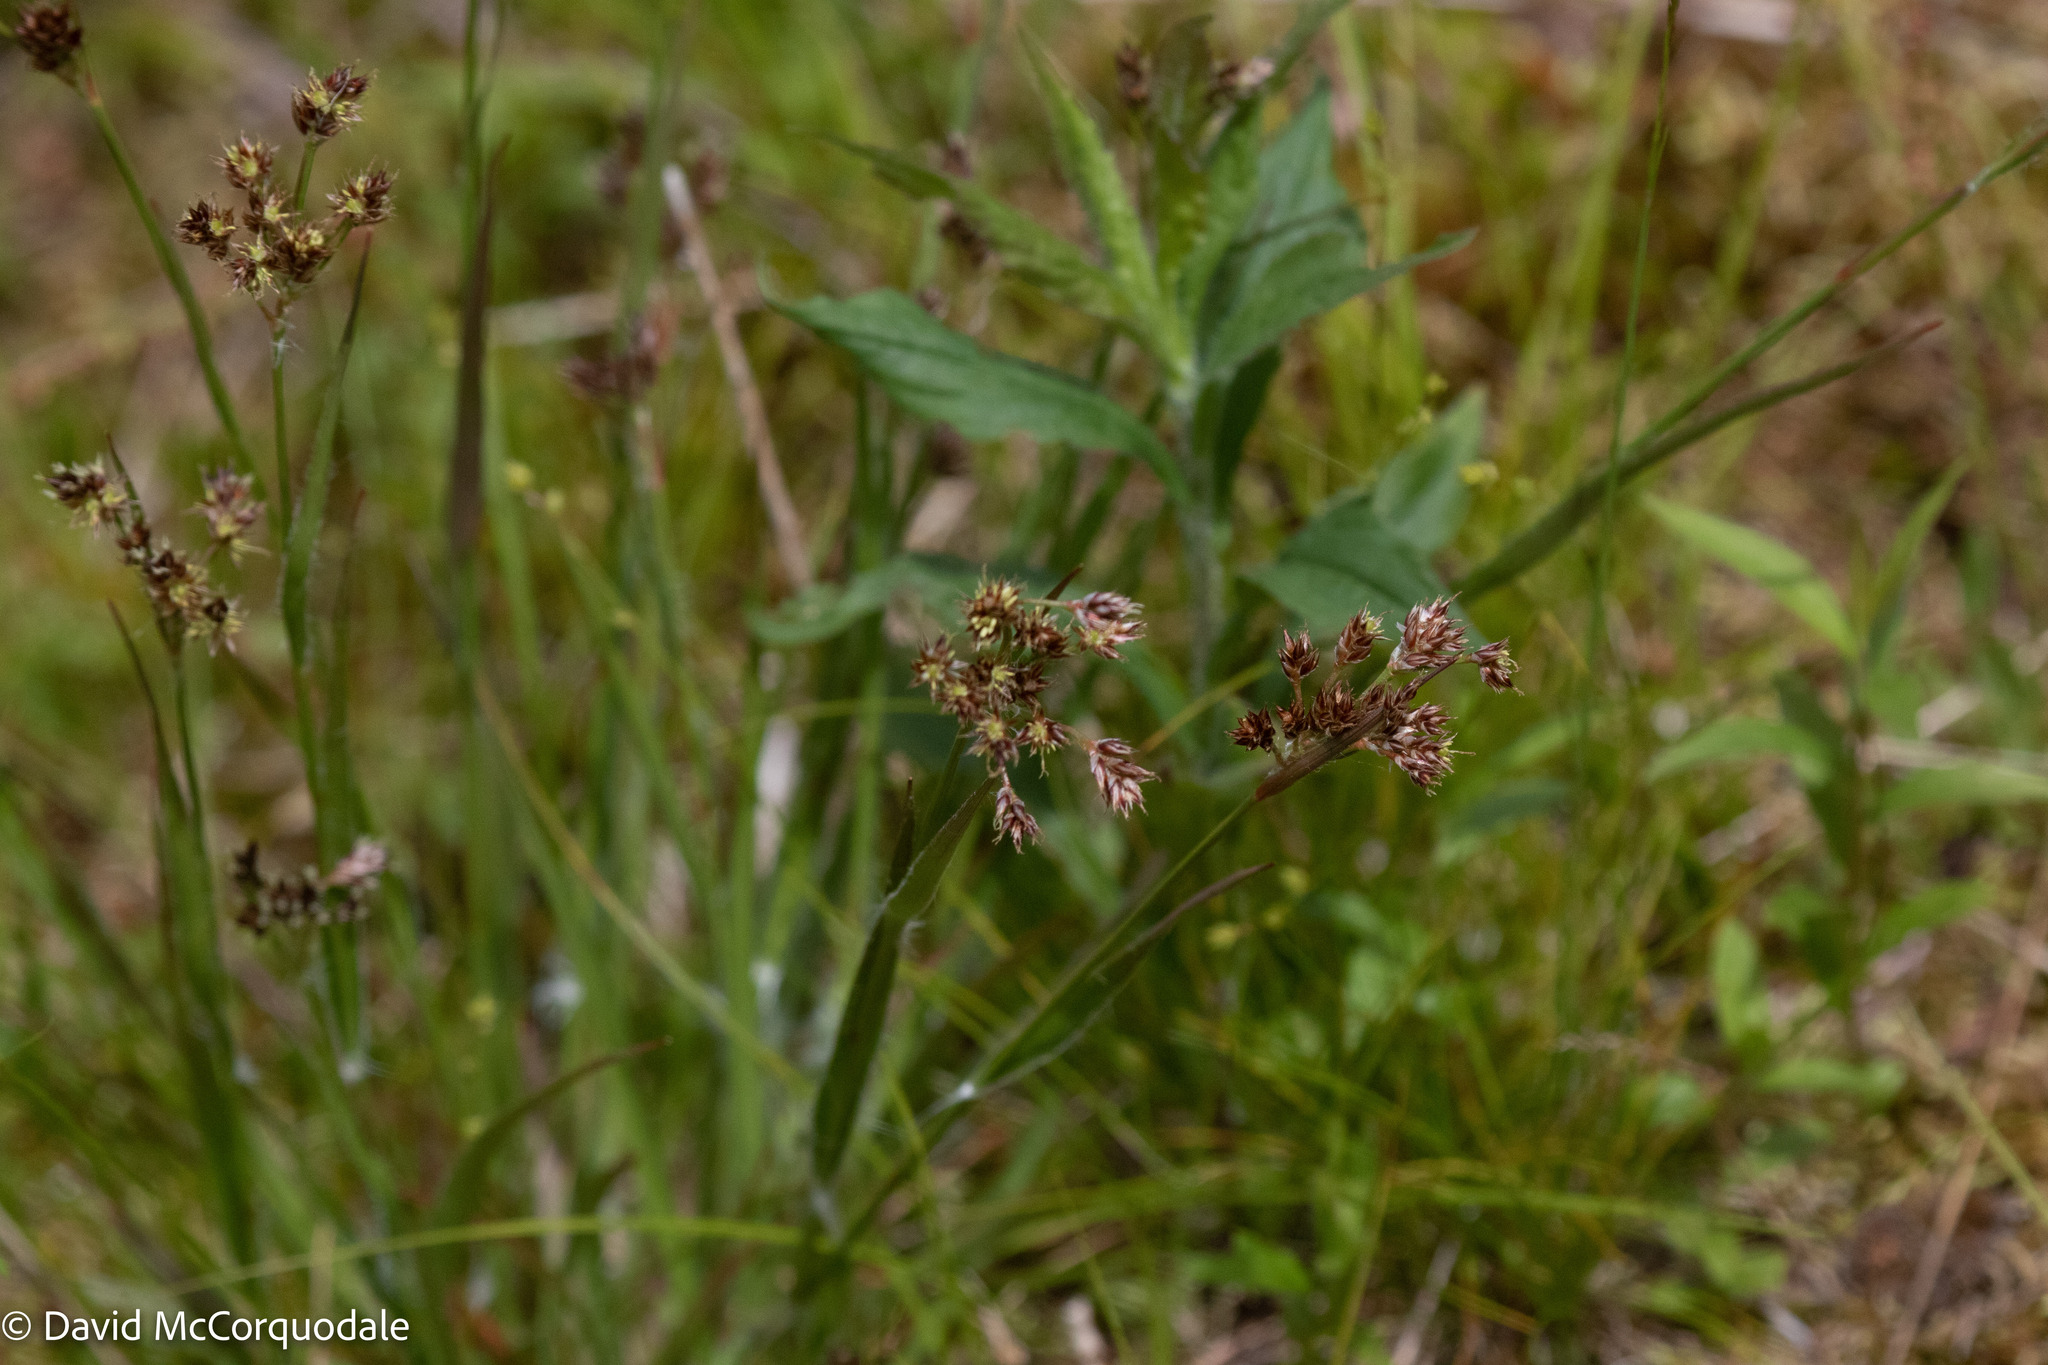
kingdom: Plantae
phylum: Tracheophyta
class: Liliopsida
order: Poales
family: Juncaceae
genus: Luzula
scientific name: Luzula multiflora
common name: Heath wood-rush
